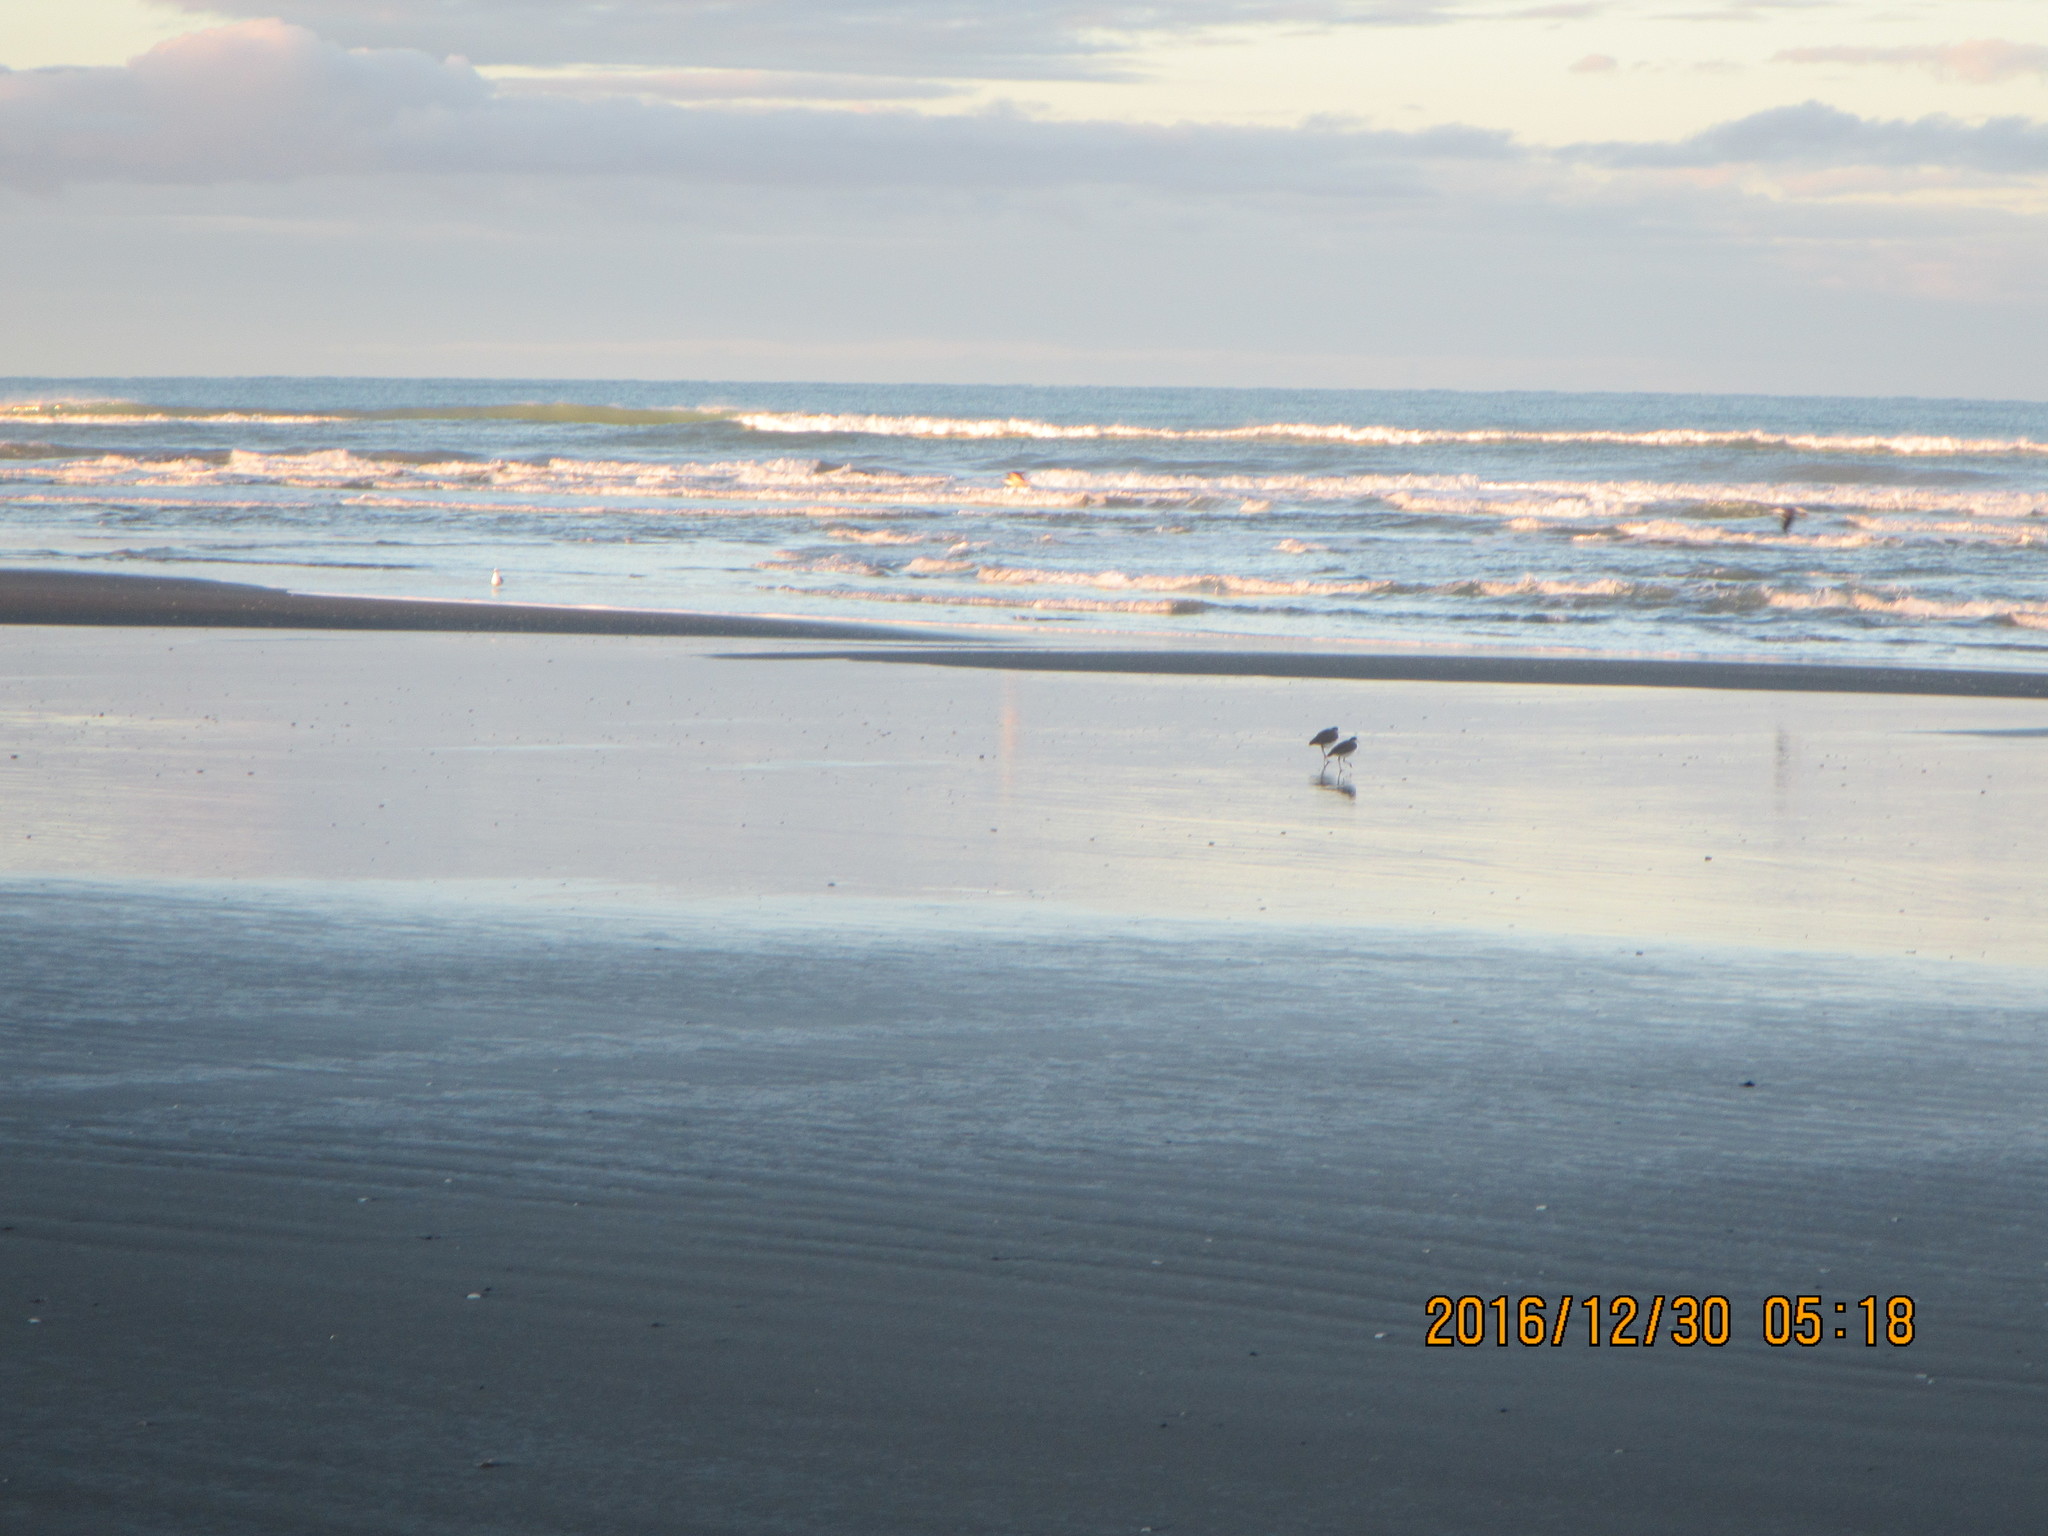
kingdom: Animalia
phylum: Chordata
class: Aves
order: Charadriiformes
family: Charadriidae
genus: Vanellus
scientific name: Vanellus miles
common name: Masked lapwing
